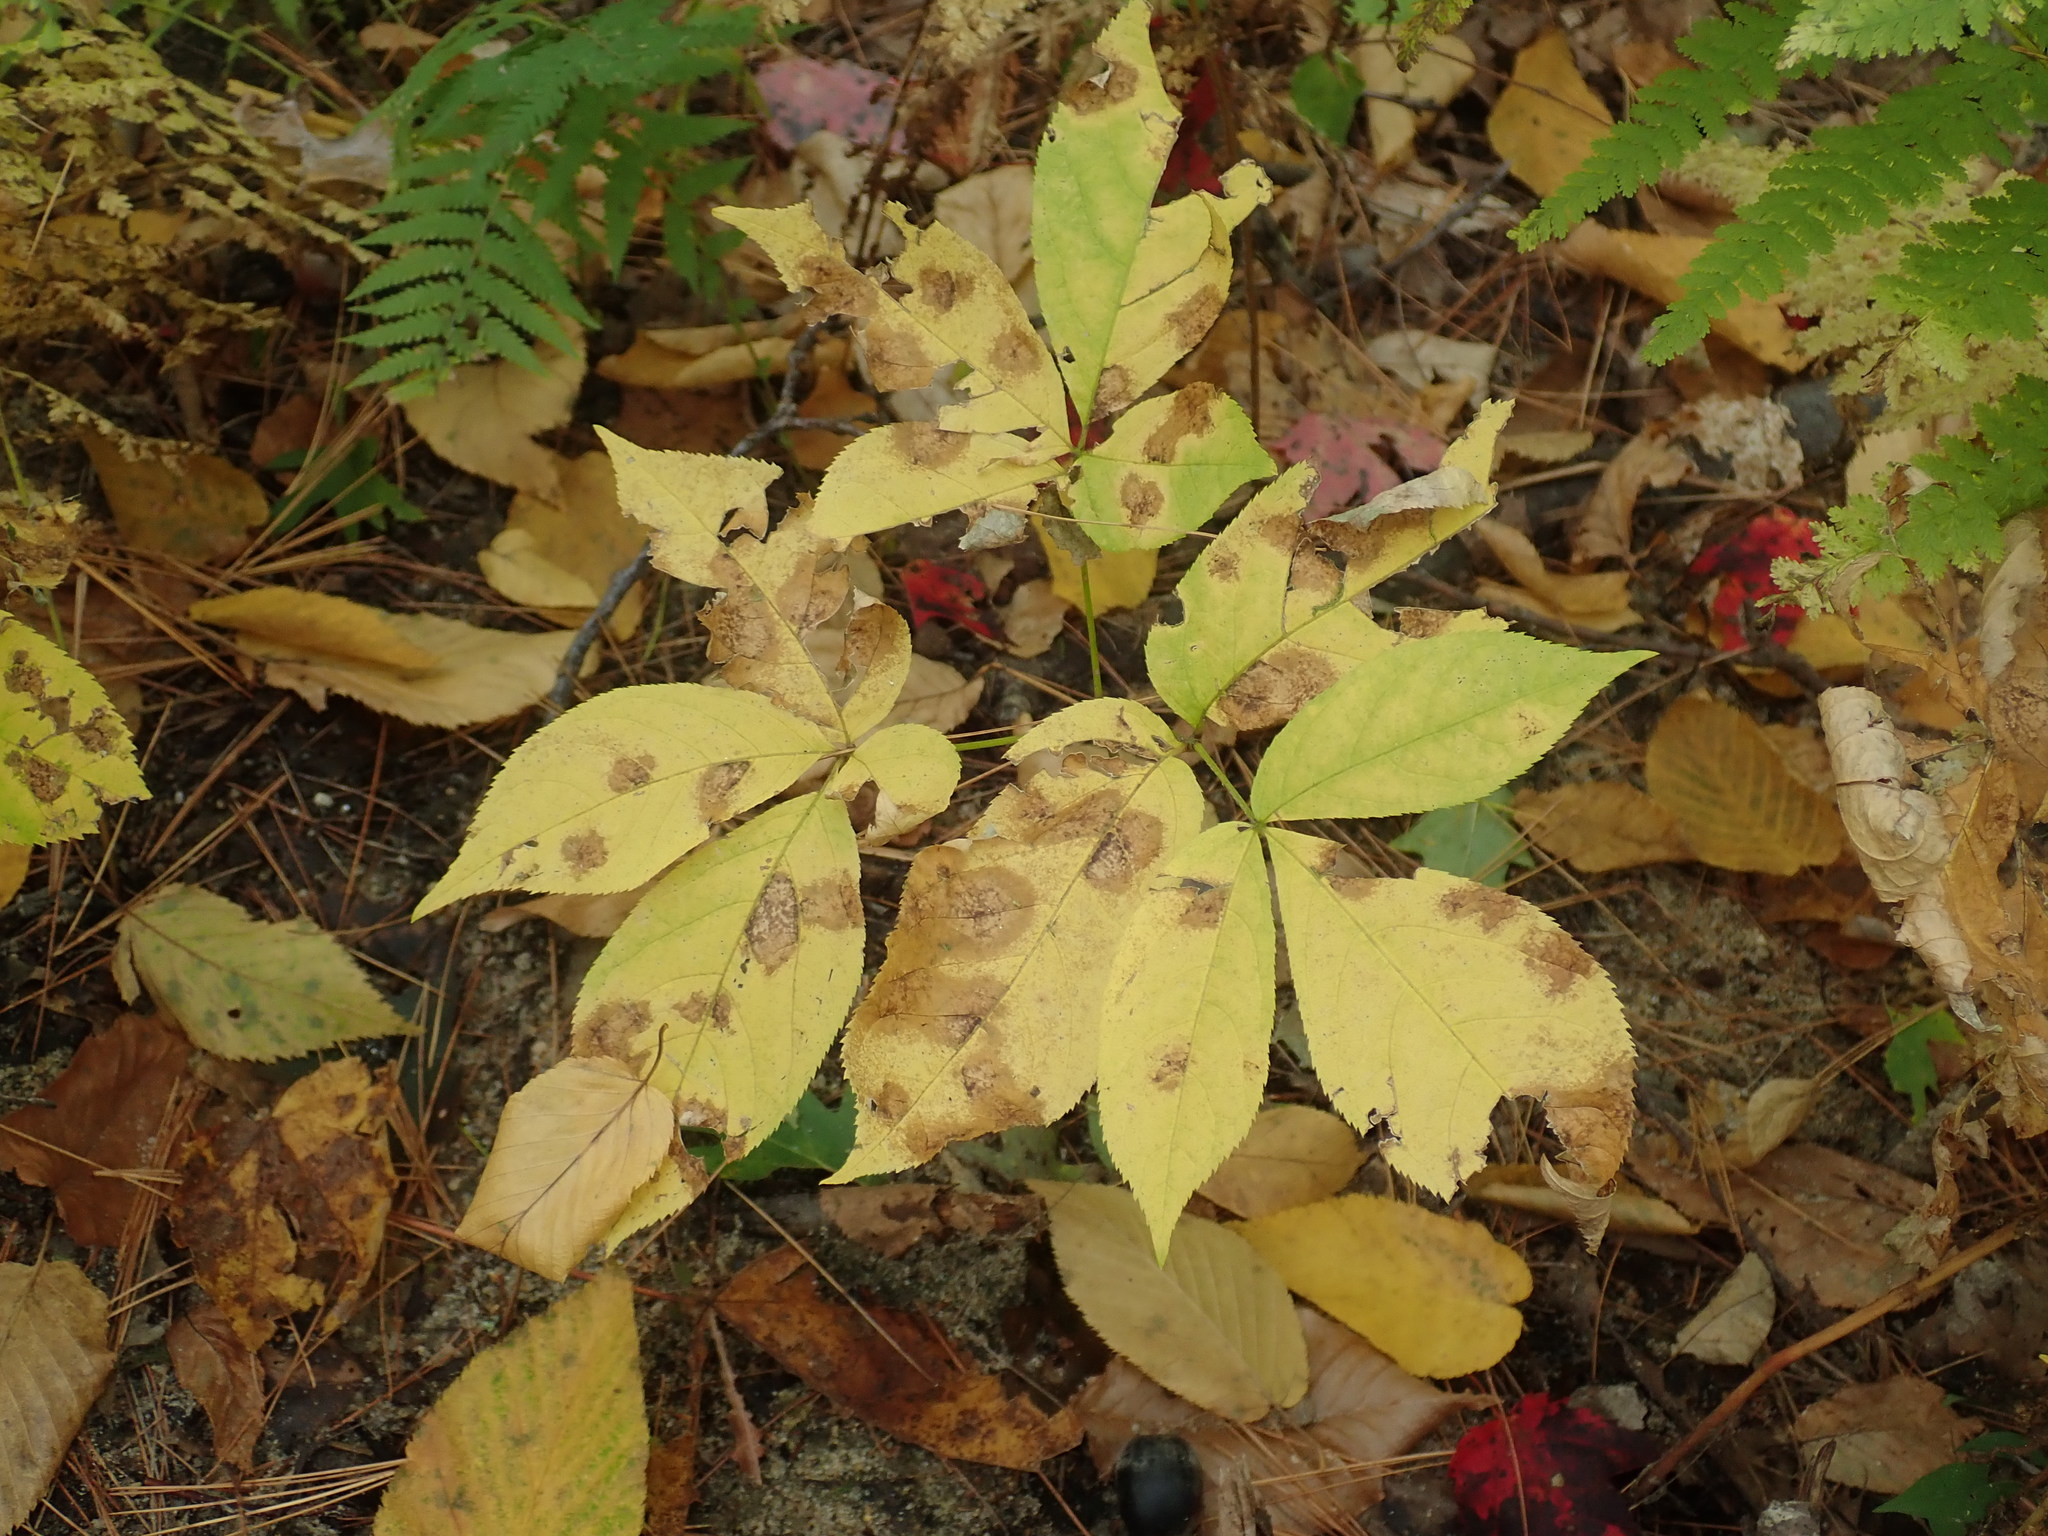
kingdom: Plantae
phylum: Tracheophyta
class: Magnoliopsida
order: Apiales
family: Araliaceae
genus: Aralia
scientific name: Aralia nudicaulis
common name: Wild sarsaparilla
